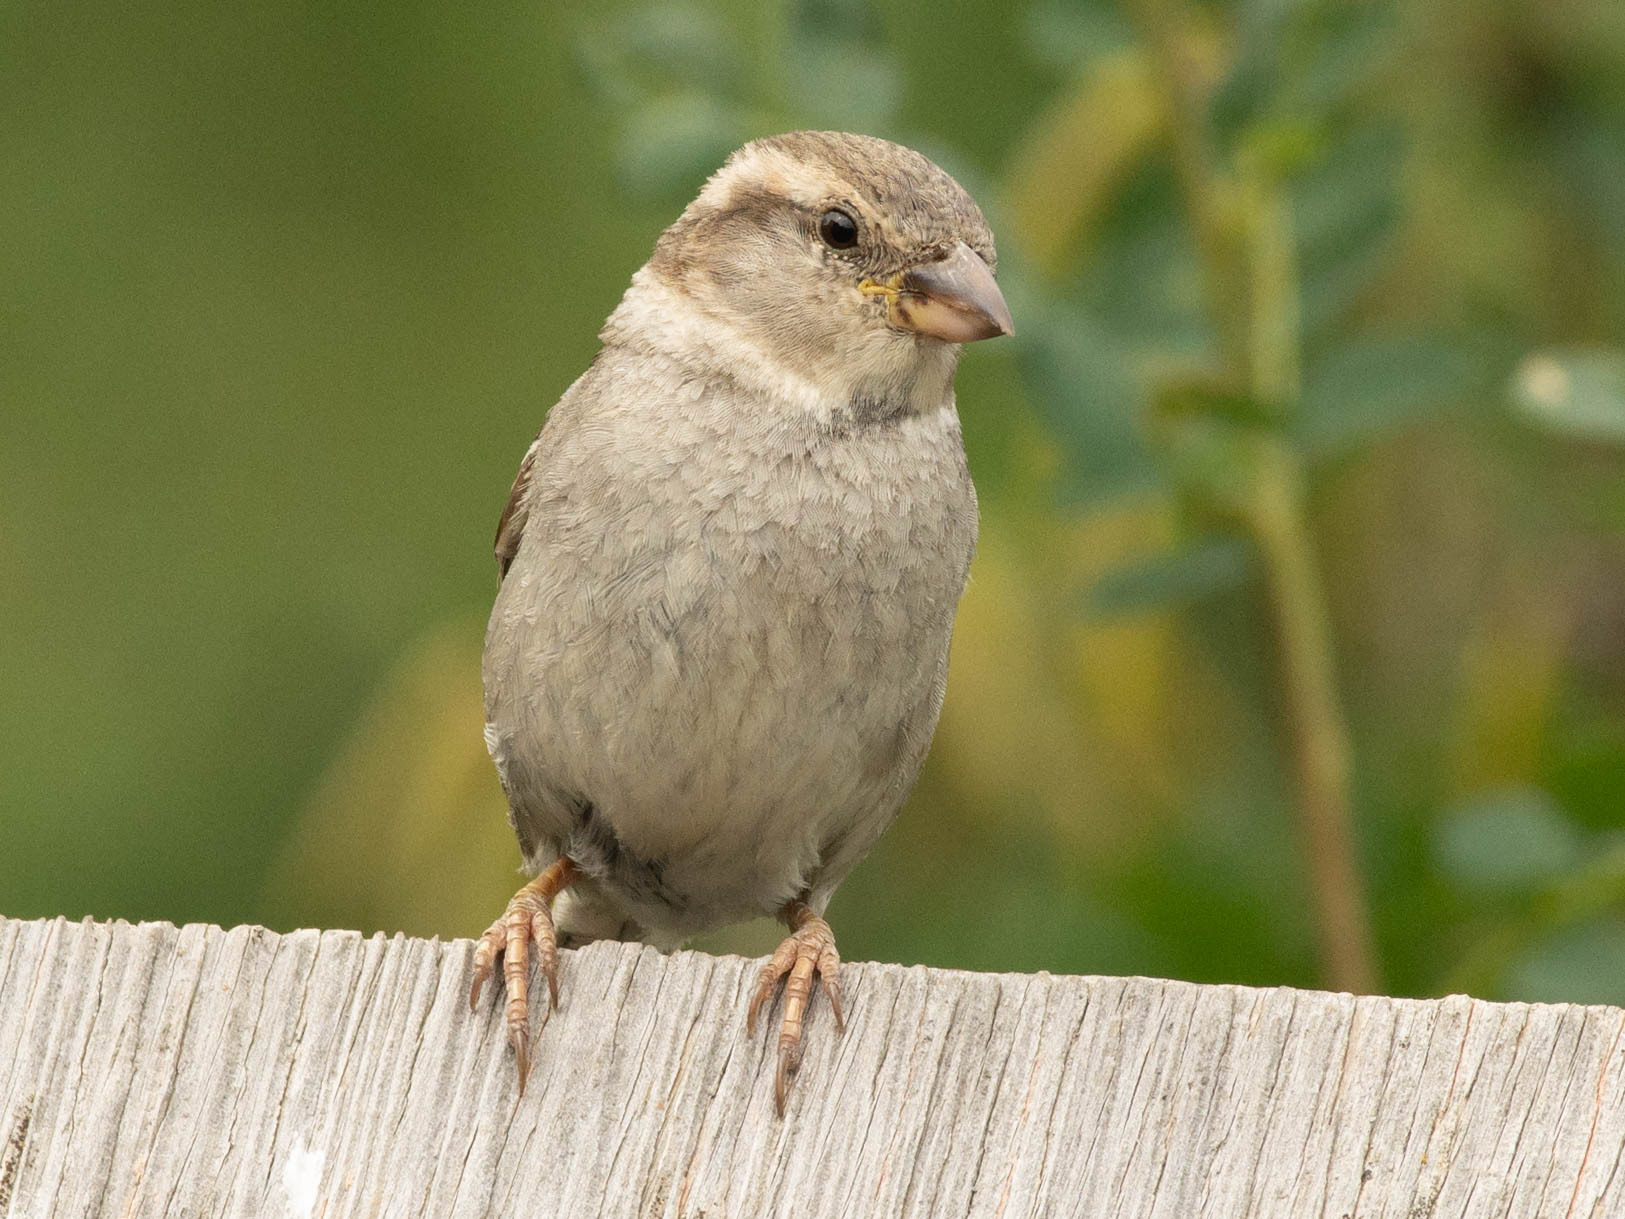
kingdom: Animalia
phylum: Chordata
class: Aves
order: Passeriformes
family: Passeridae
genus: Passer
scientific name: Passer domesticus
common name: House sparrow
